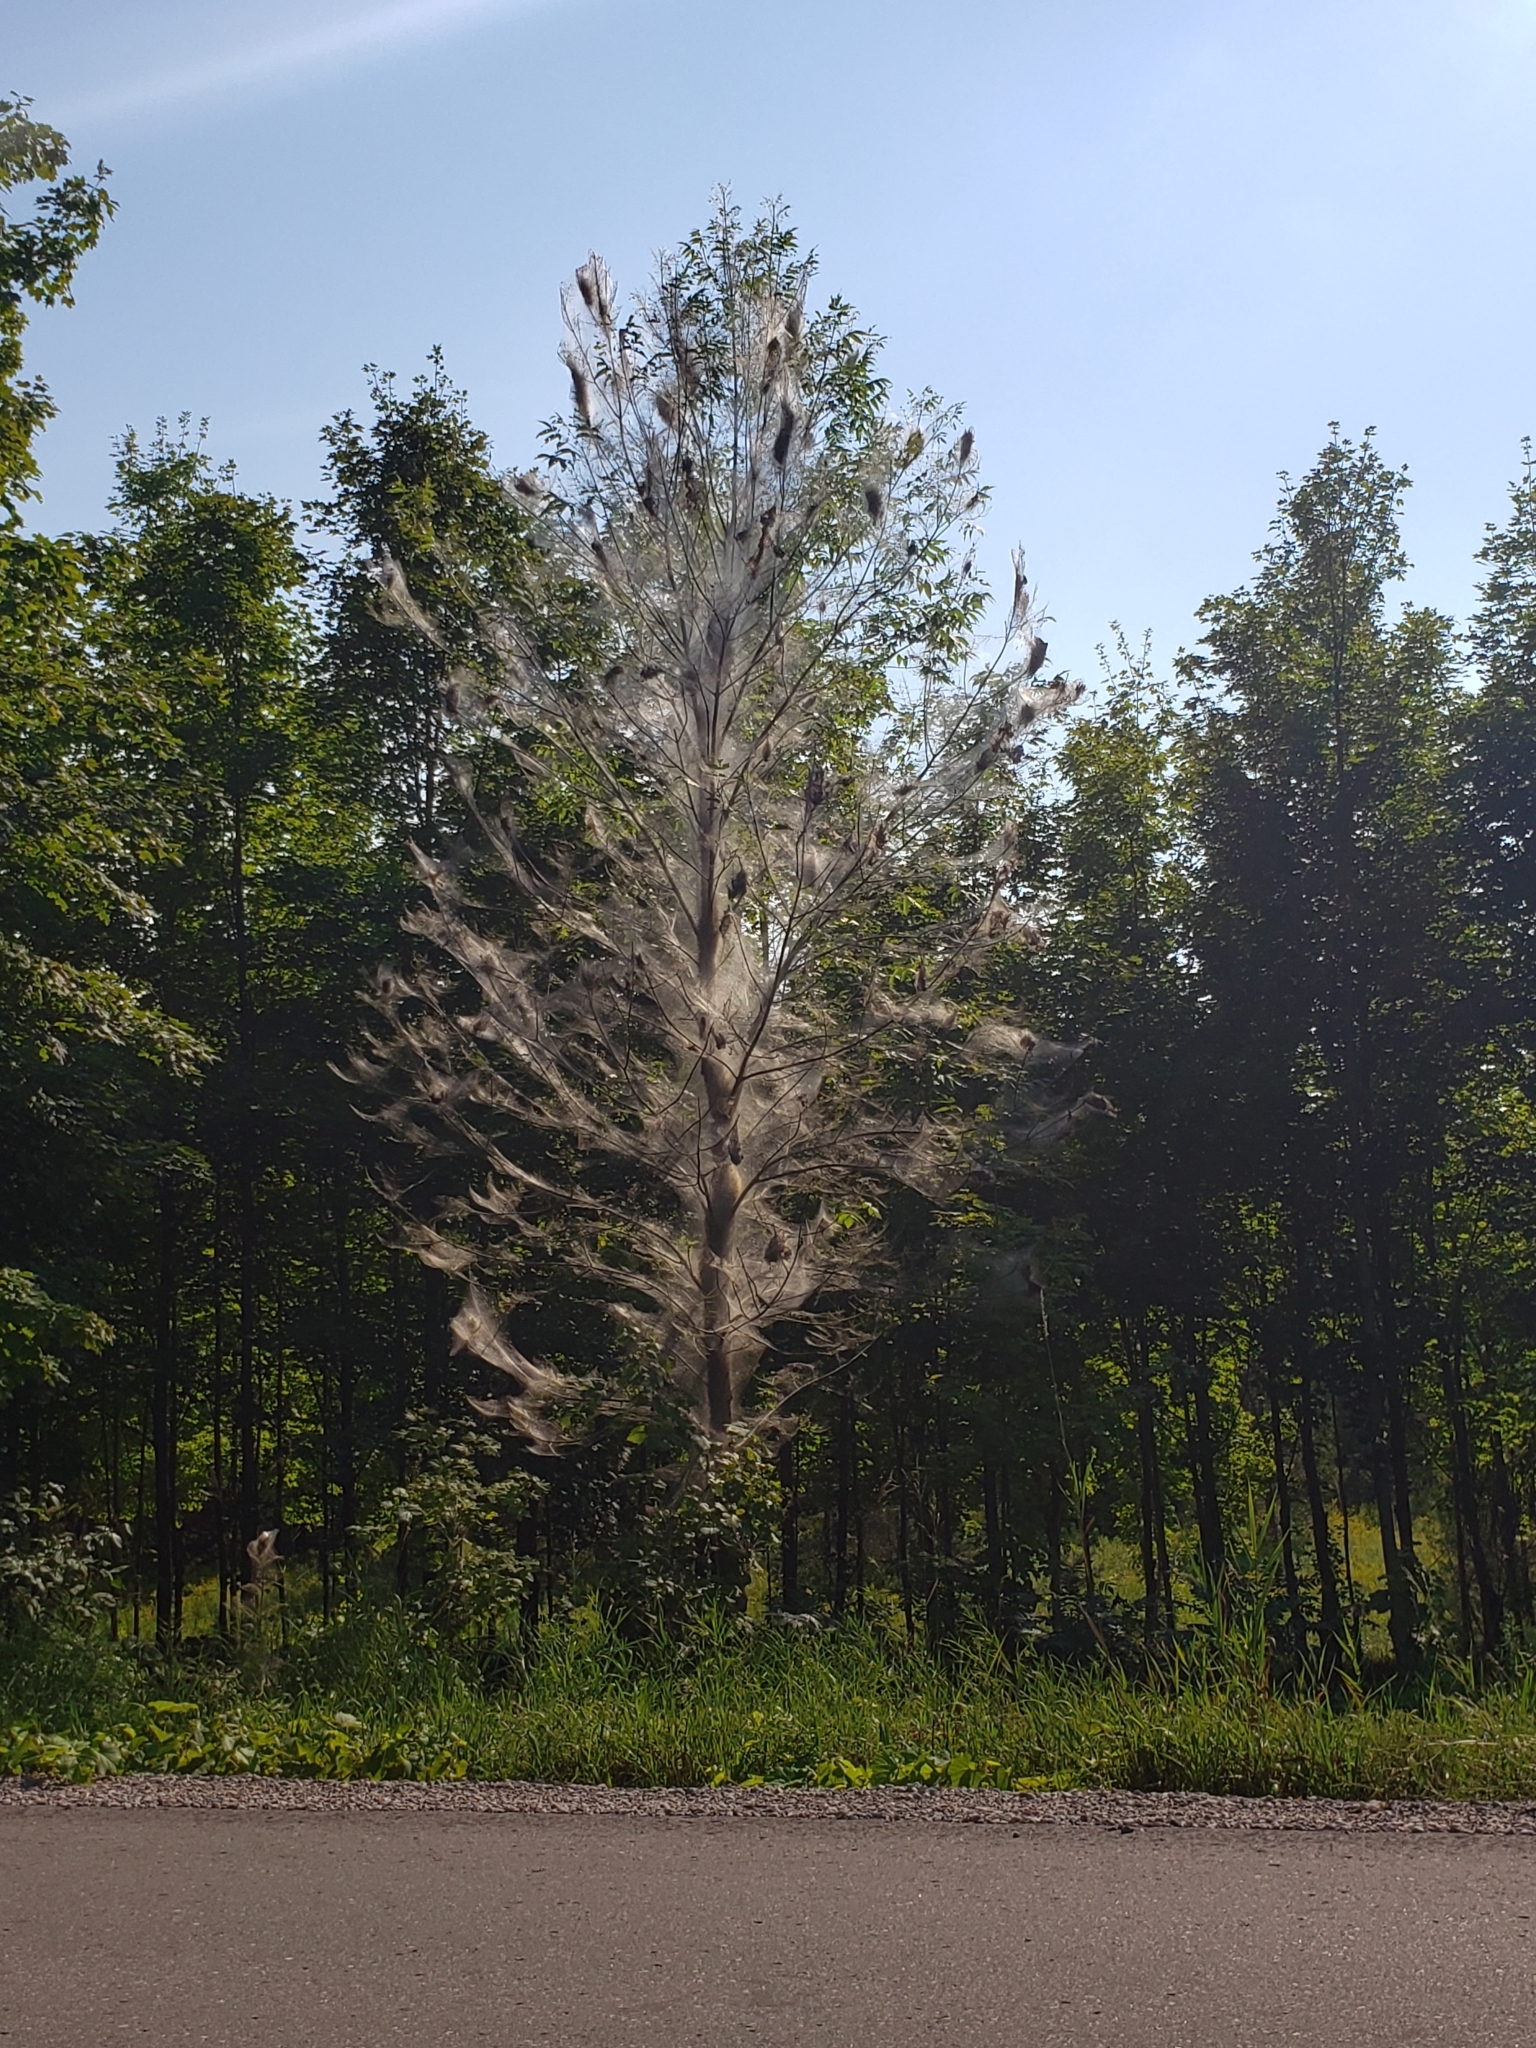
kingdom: Animalia
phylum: Arthropoda
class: Insecta
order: Lepidoptera
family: Erebidae
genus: Hyphantria
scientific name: Hyphantria cunea
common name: American white moth
